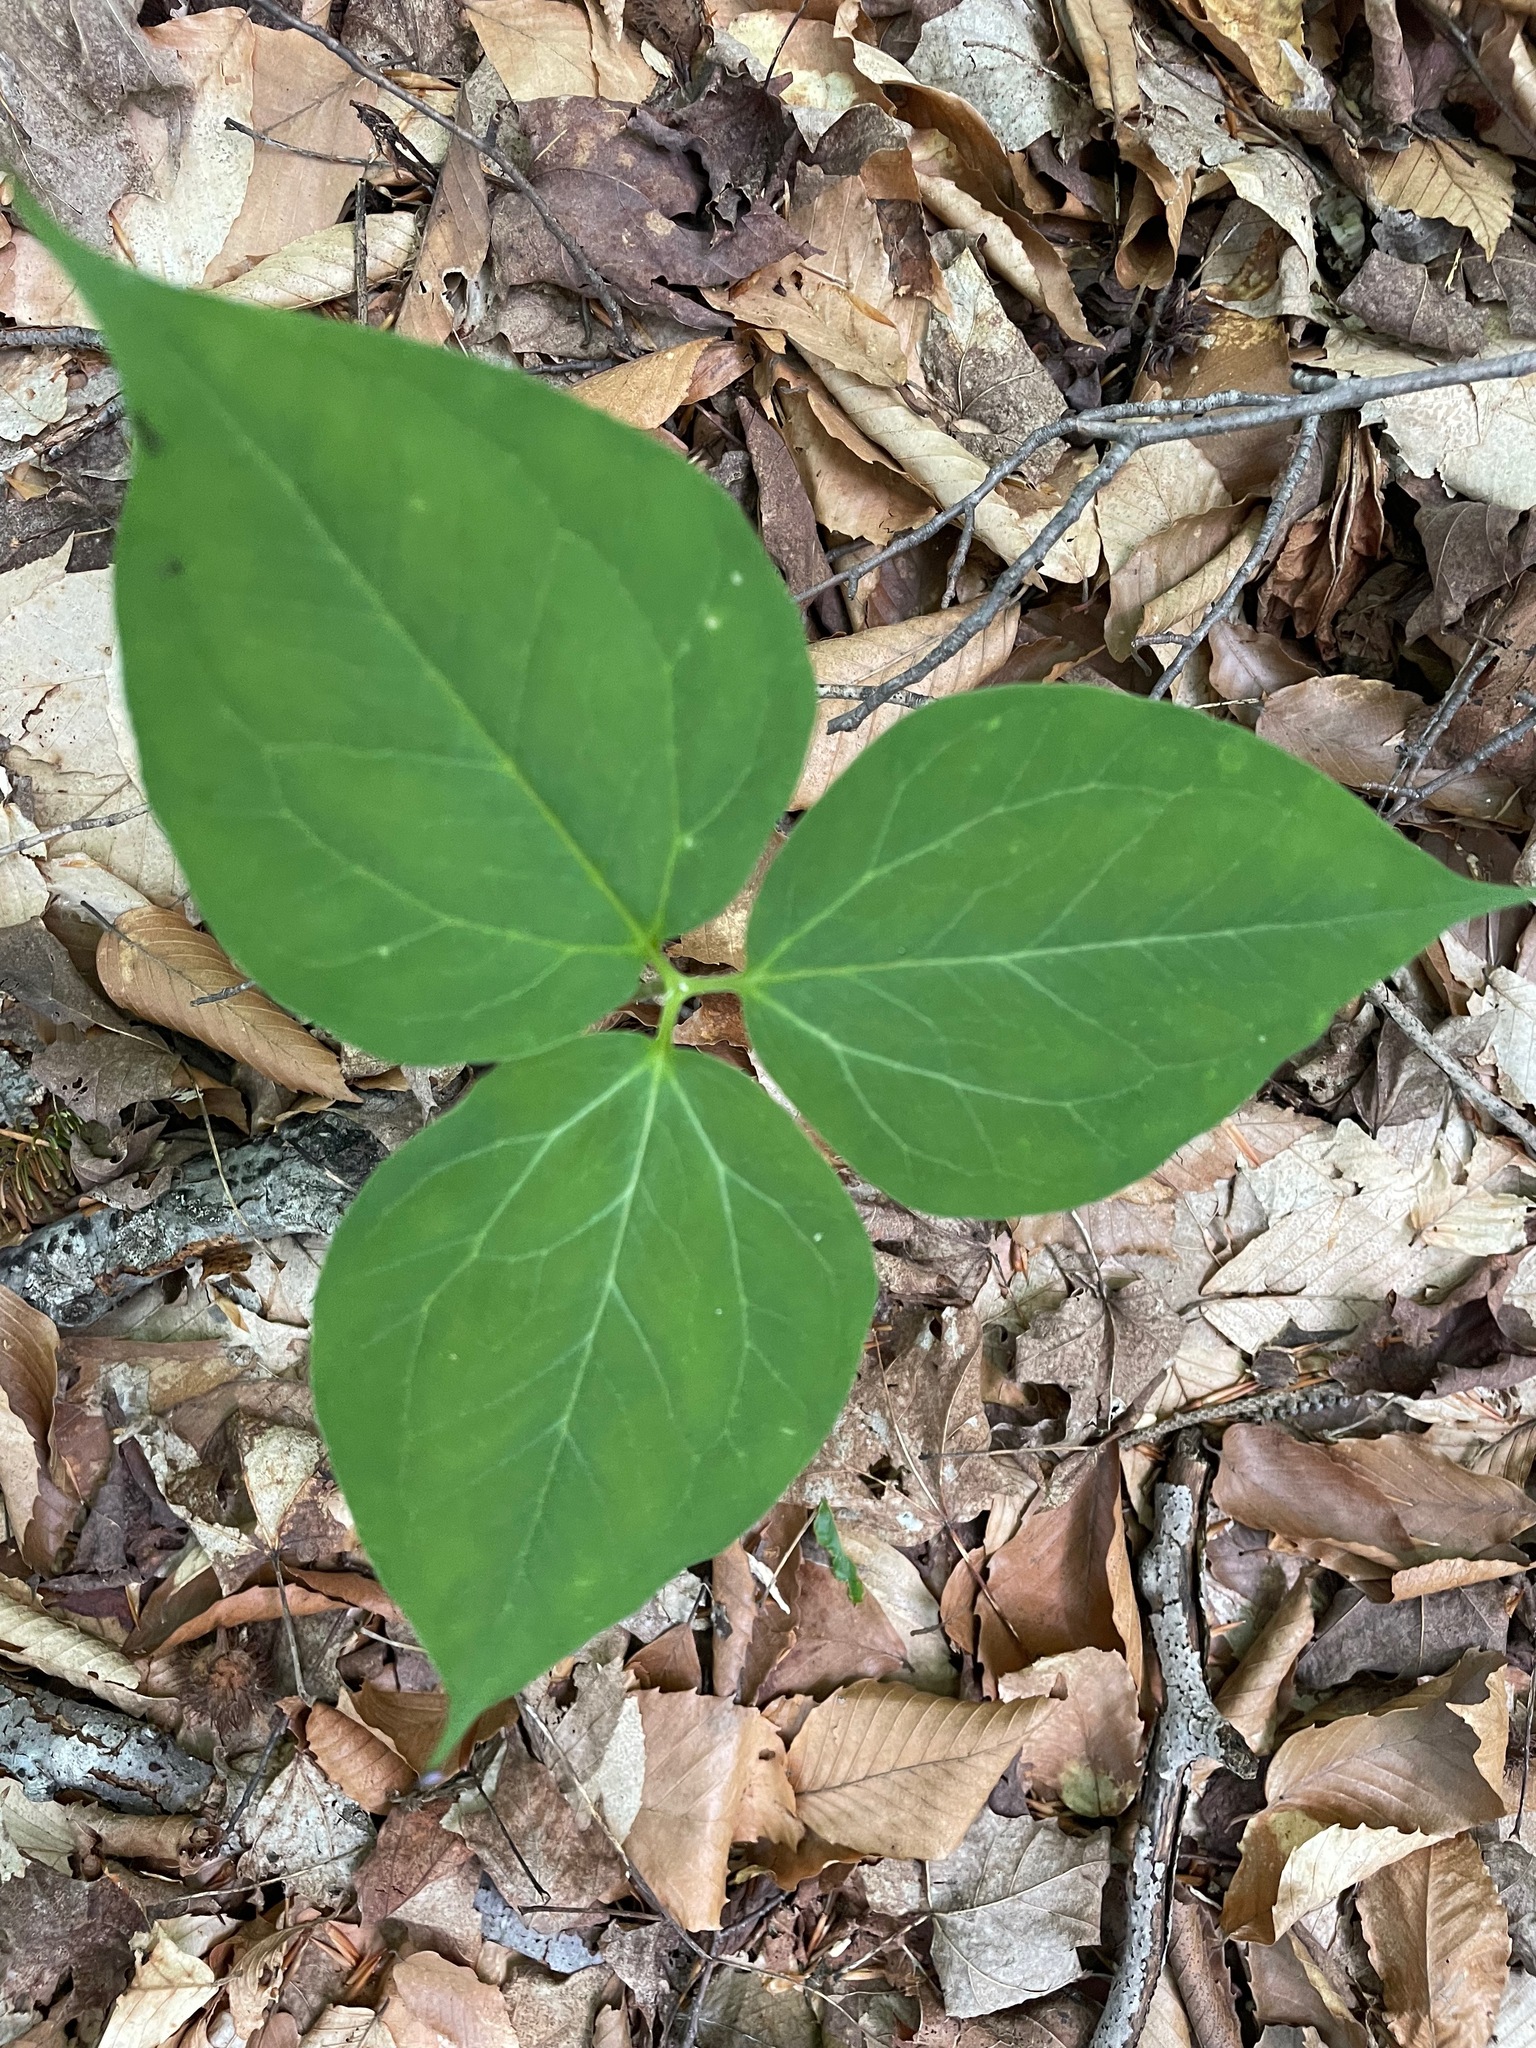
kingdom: Plantae
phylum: Tracheophyta
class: Liliopsida
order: Liliales
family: Melanthiaceae
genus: Trillium
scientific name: Trillium undulatum
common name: Paint trillium
